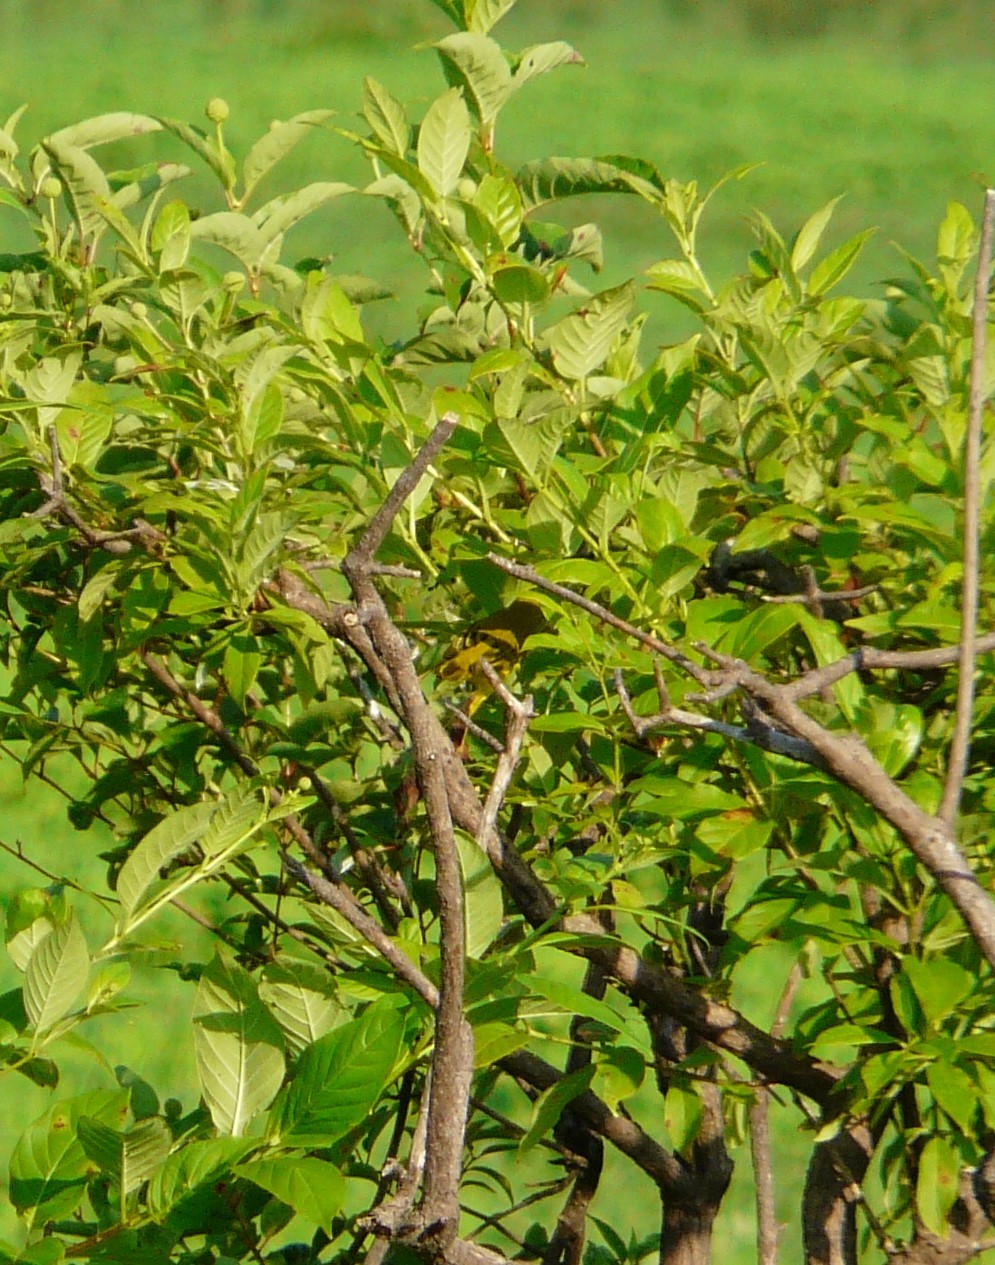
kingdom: Animalia
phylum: Chordata
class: Aves
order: Passeriformes
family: Parulidae
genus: Setophaga
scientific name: Setophaga petechia
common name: Yellow warbler
